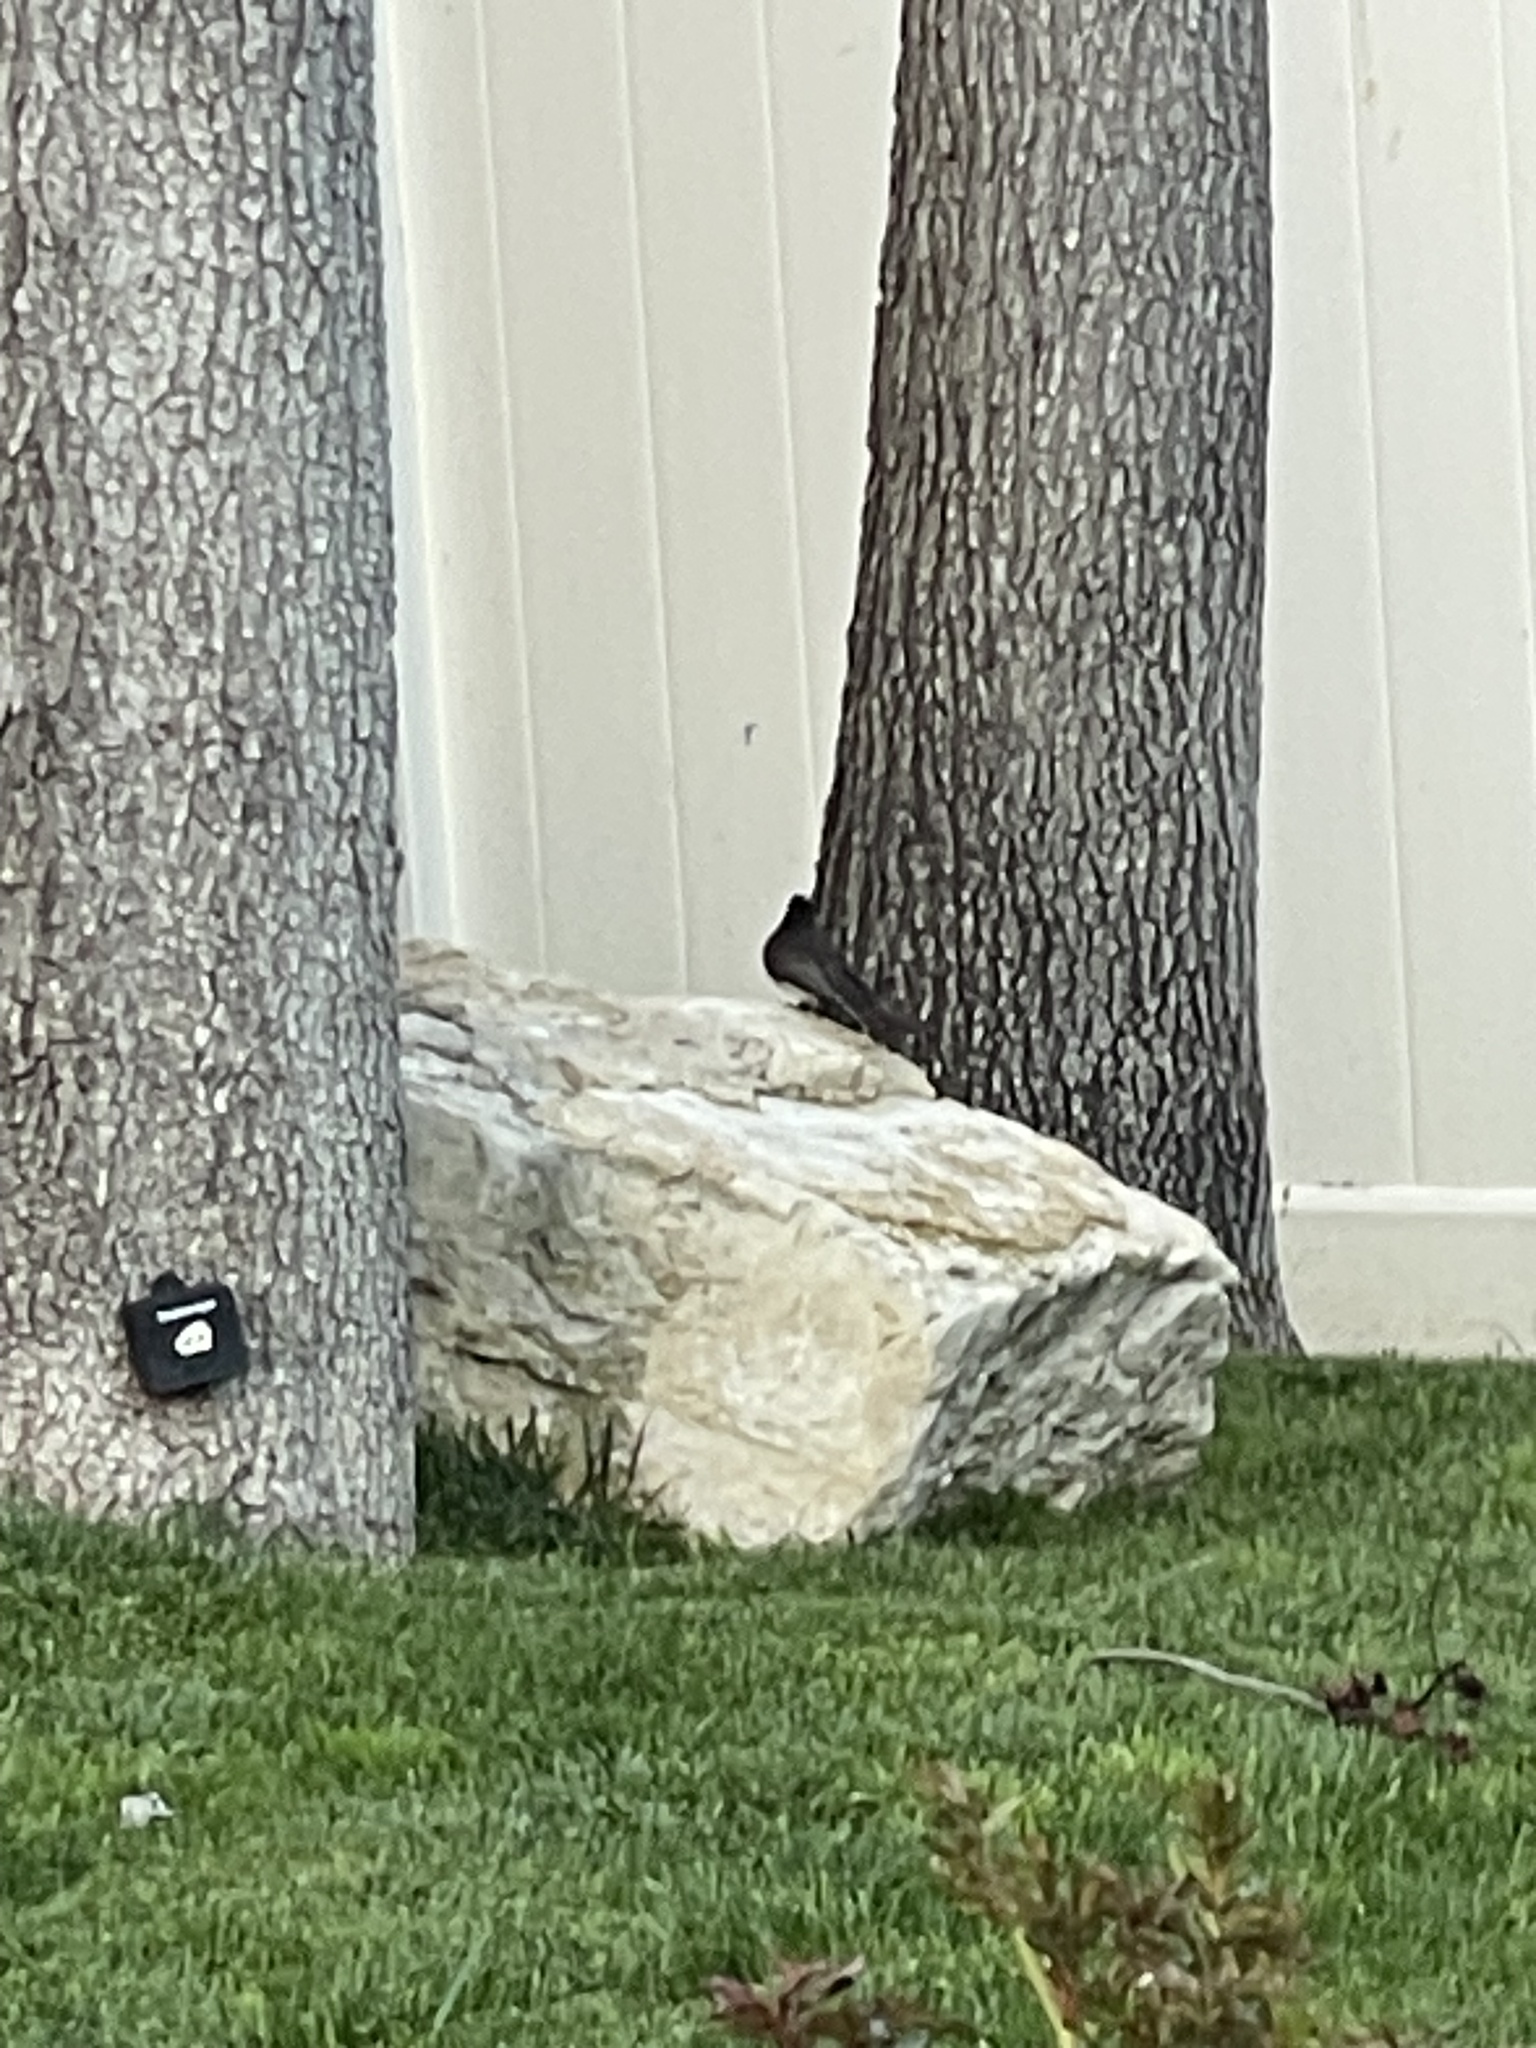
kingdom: Animalia
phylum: Chordata
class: Aves
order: Passeriformes
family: Tyrannidae
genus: Sayornis
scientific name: Sayornis nigricans
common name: Black phoebe
